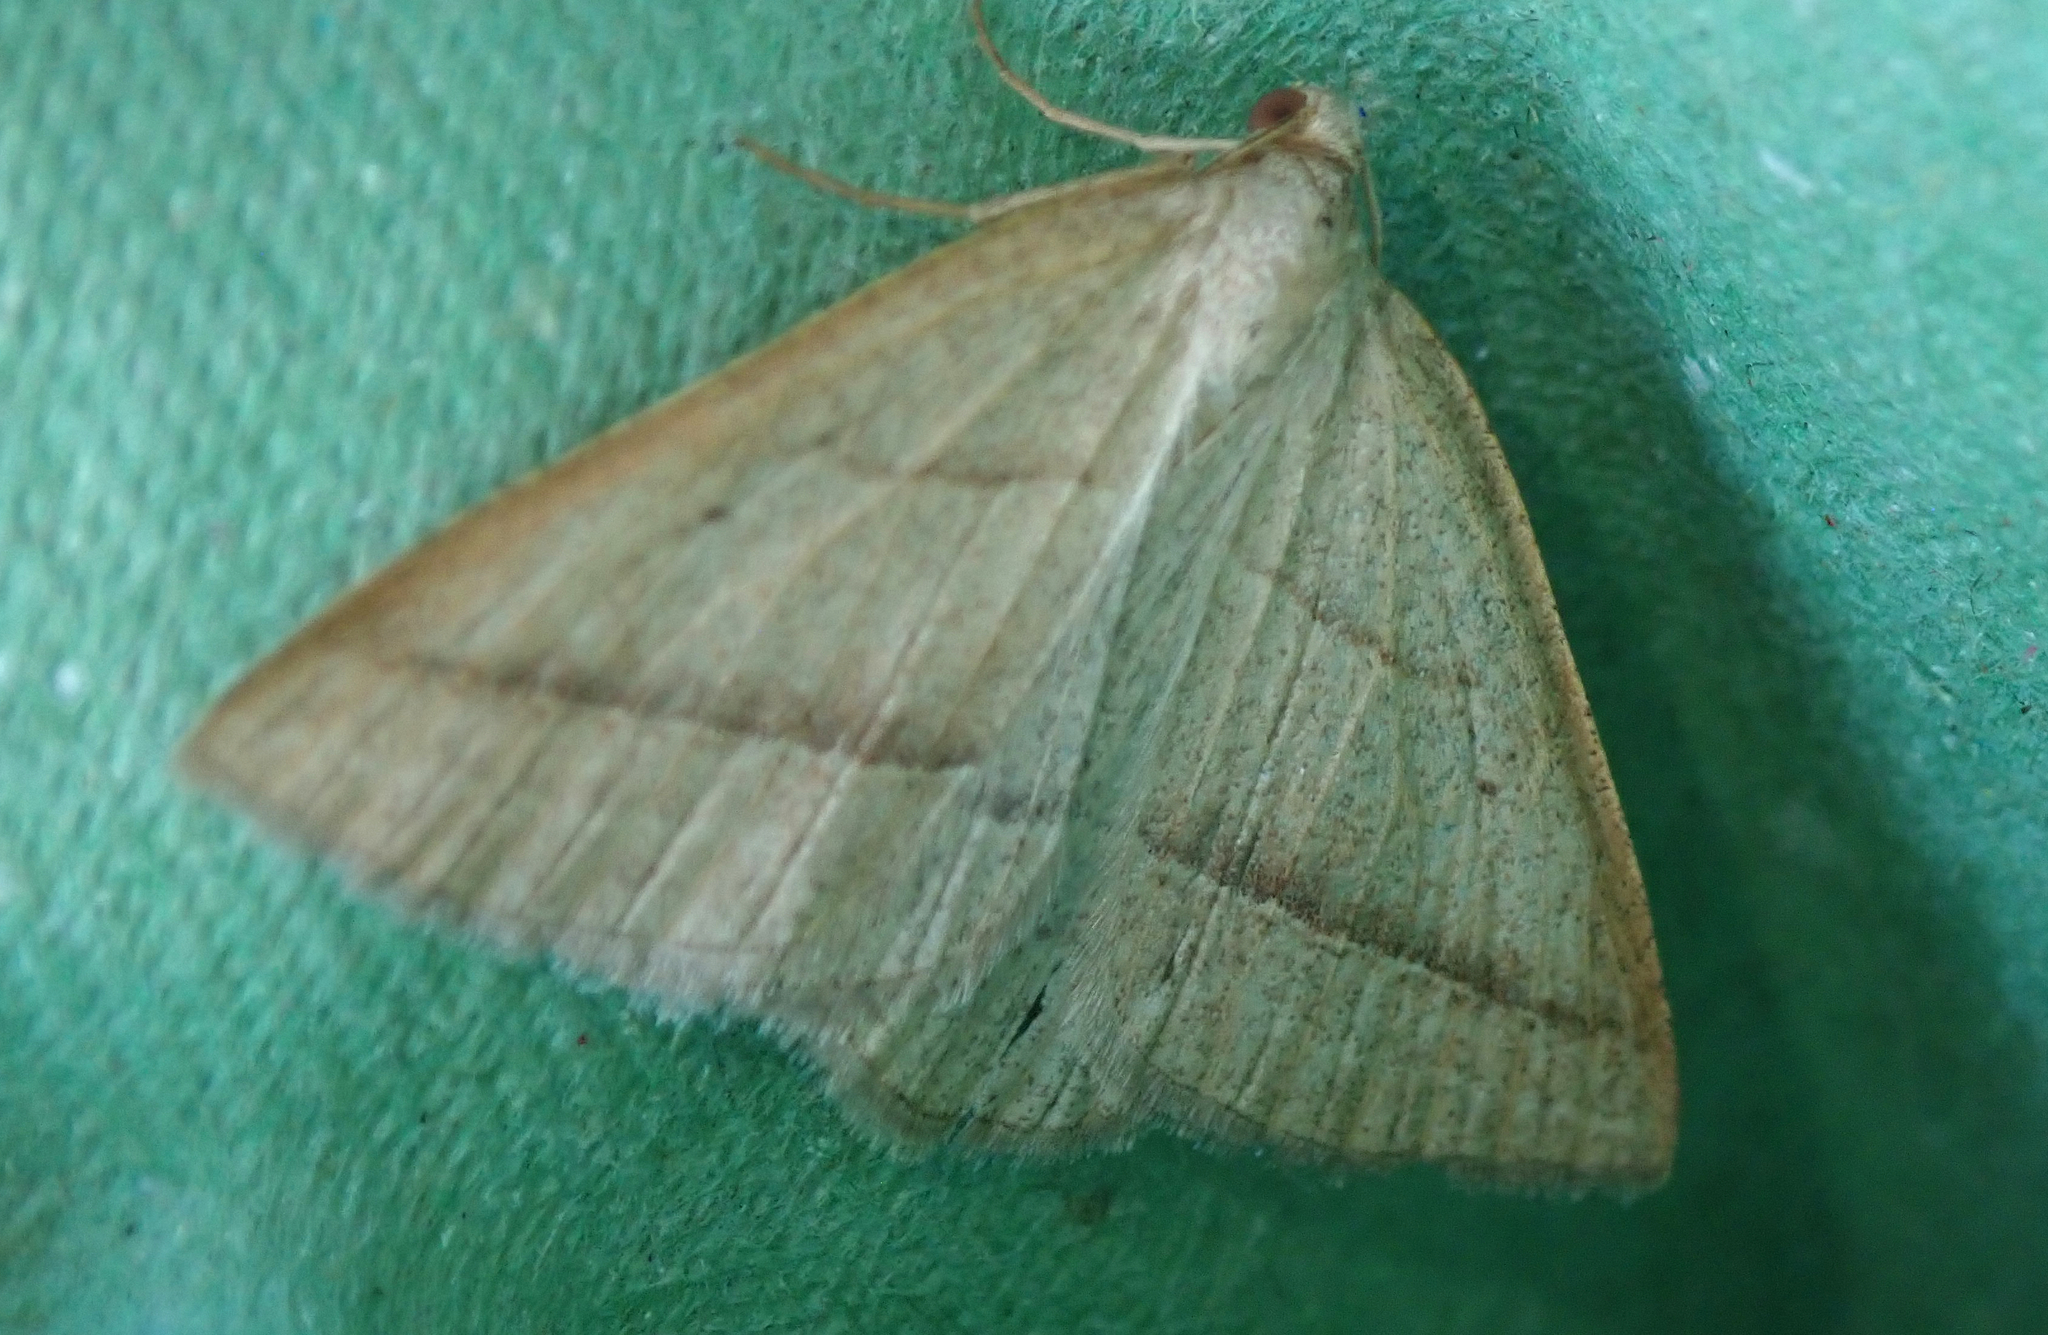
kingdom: Animalia
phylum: Arthropoda
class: Insecta
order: Lepidoptera
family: Pterophoridae
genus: Pterophorus
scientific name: Pterophorus Petrophora chlorosata
